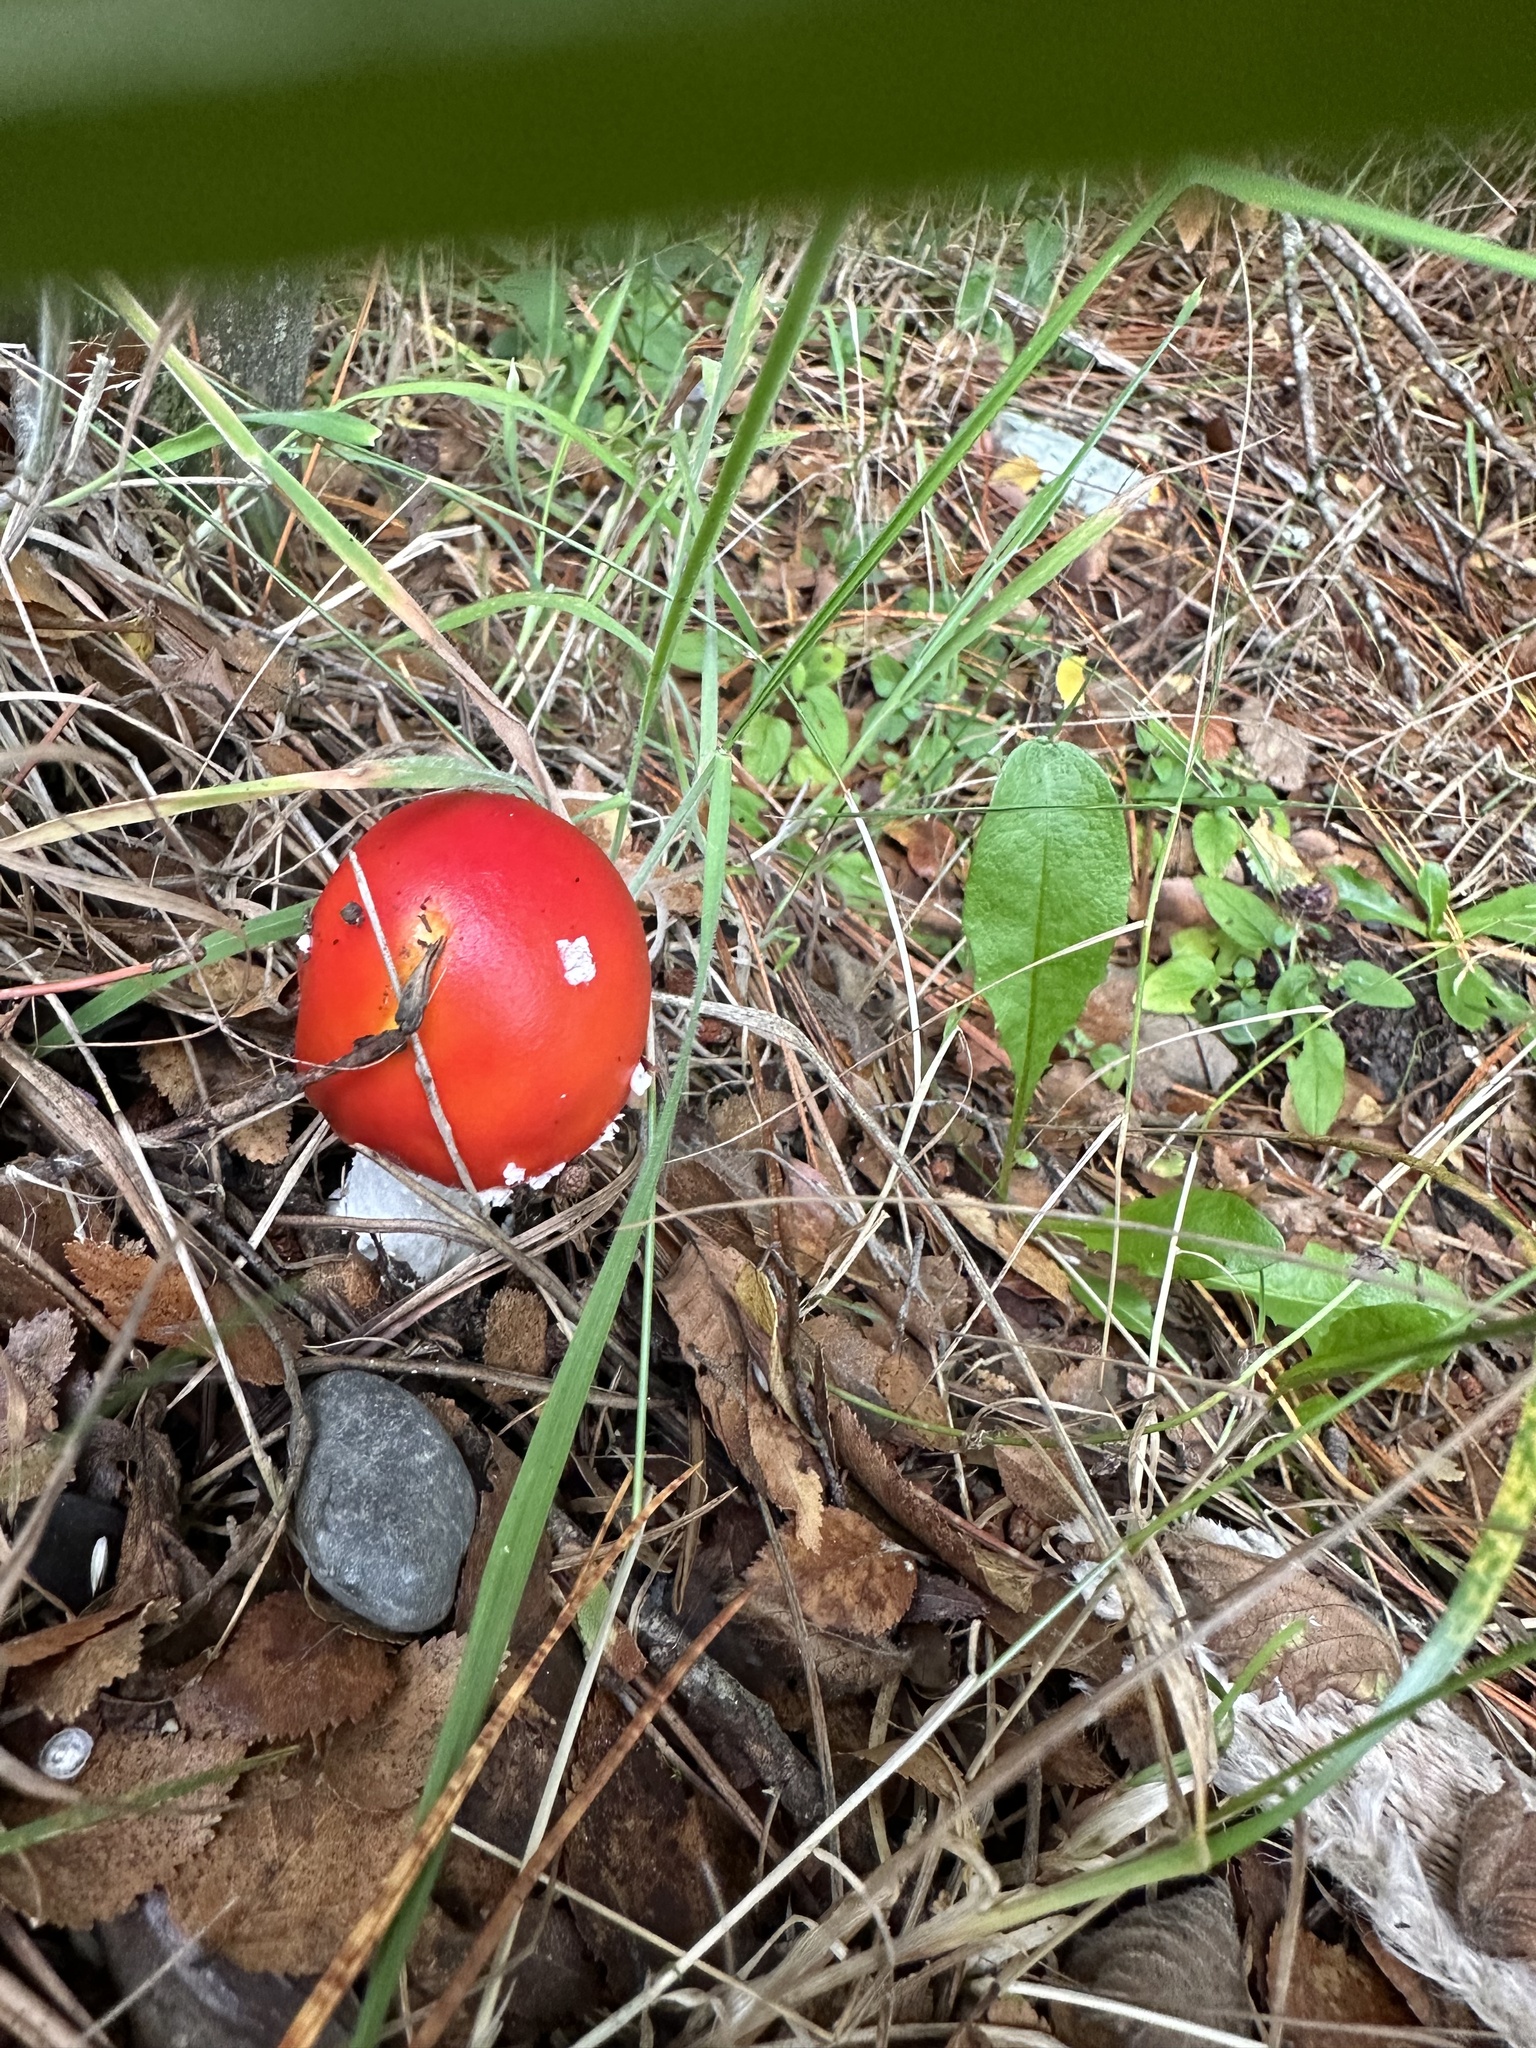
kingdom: Fungi
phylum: Basidiomycota
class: Agaricomycetes
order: Agaricales
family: Amanitaceae
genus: Amanita
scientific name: Amanita muscaria
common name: Fly agaric
